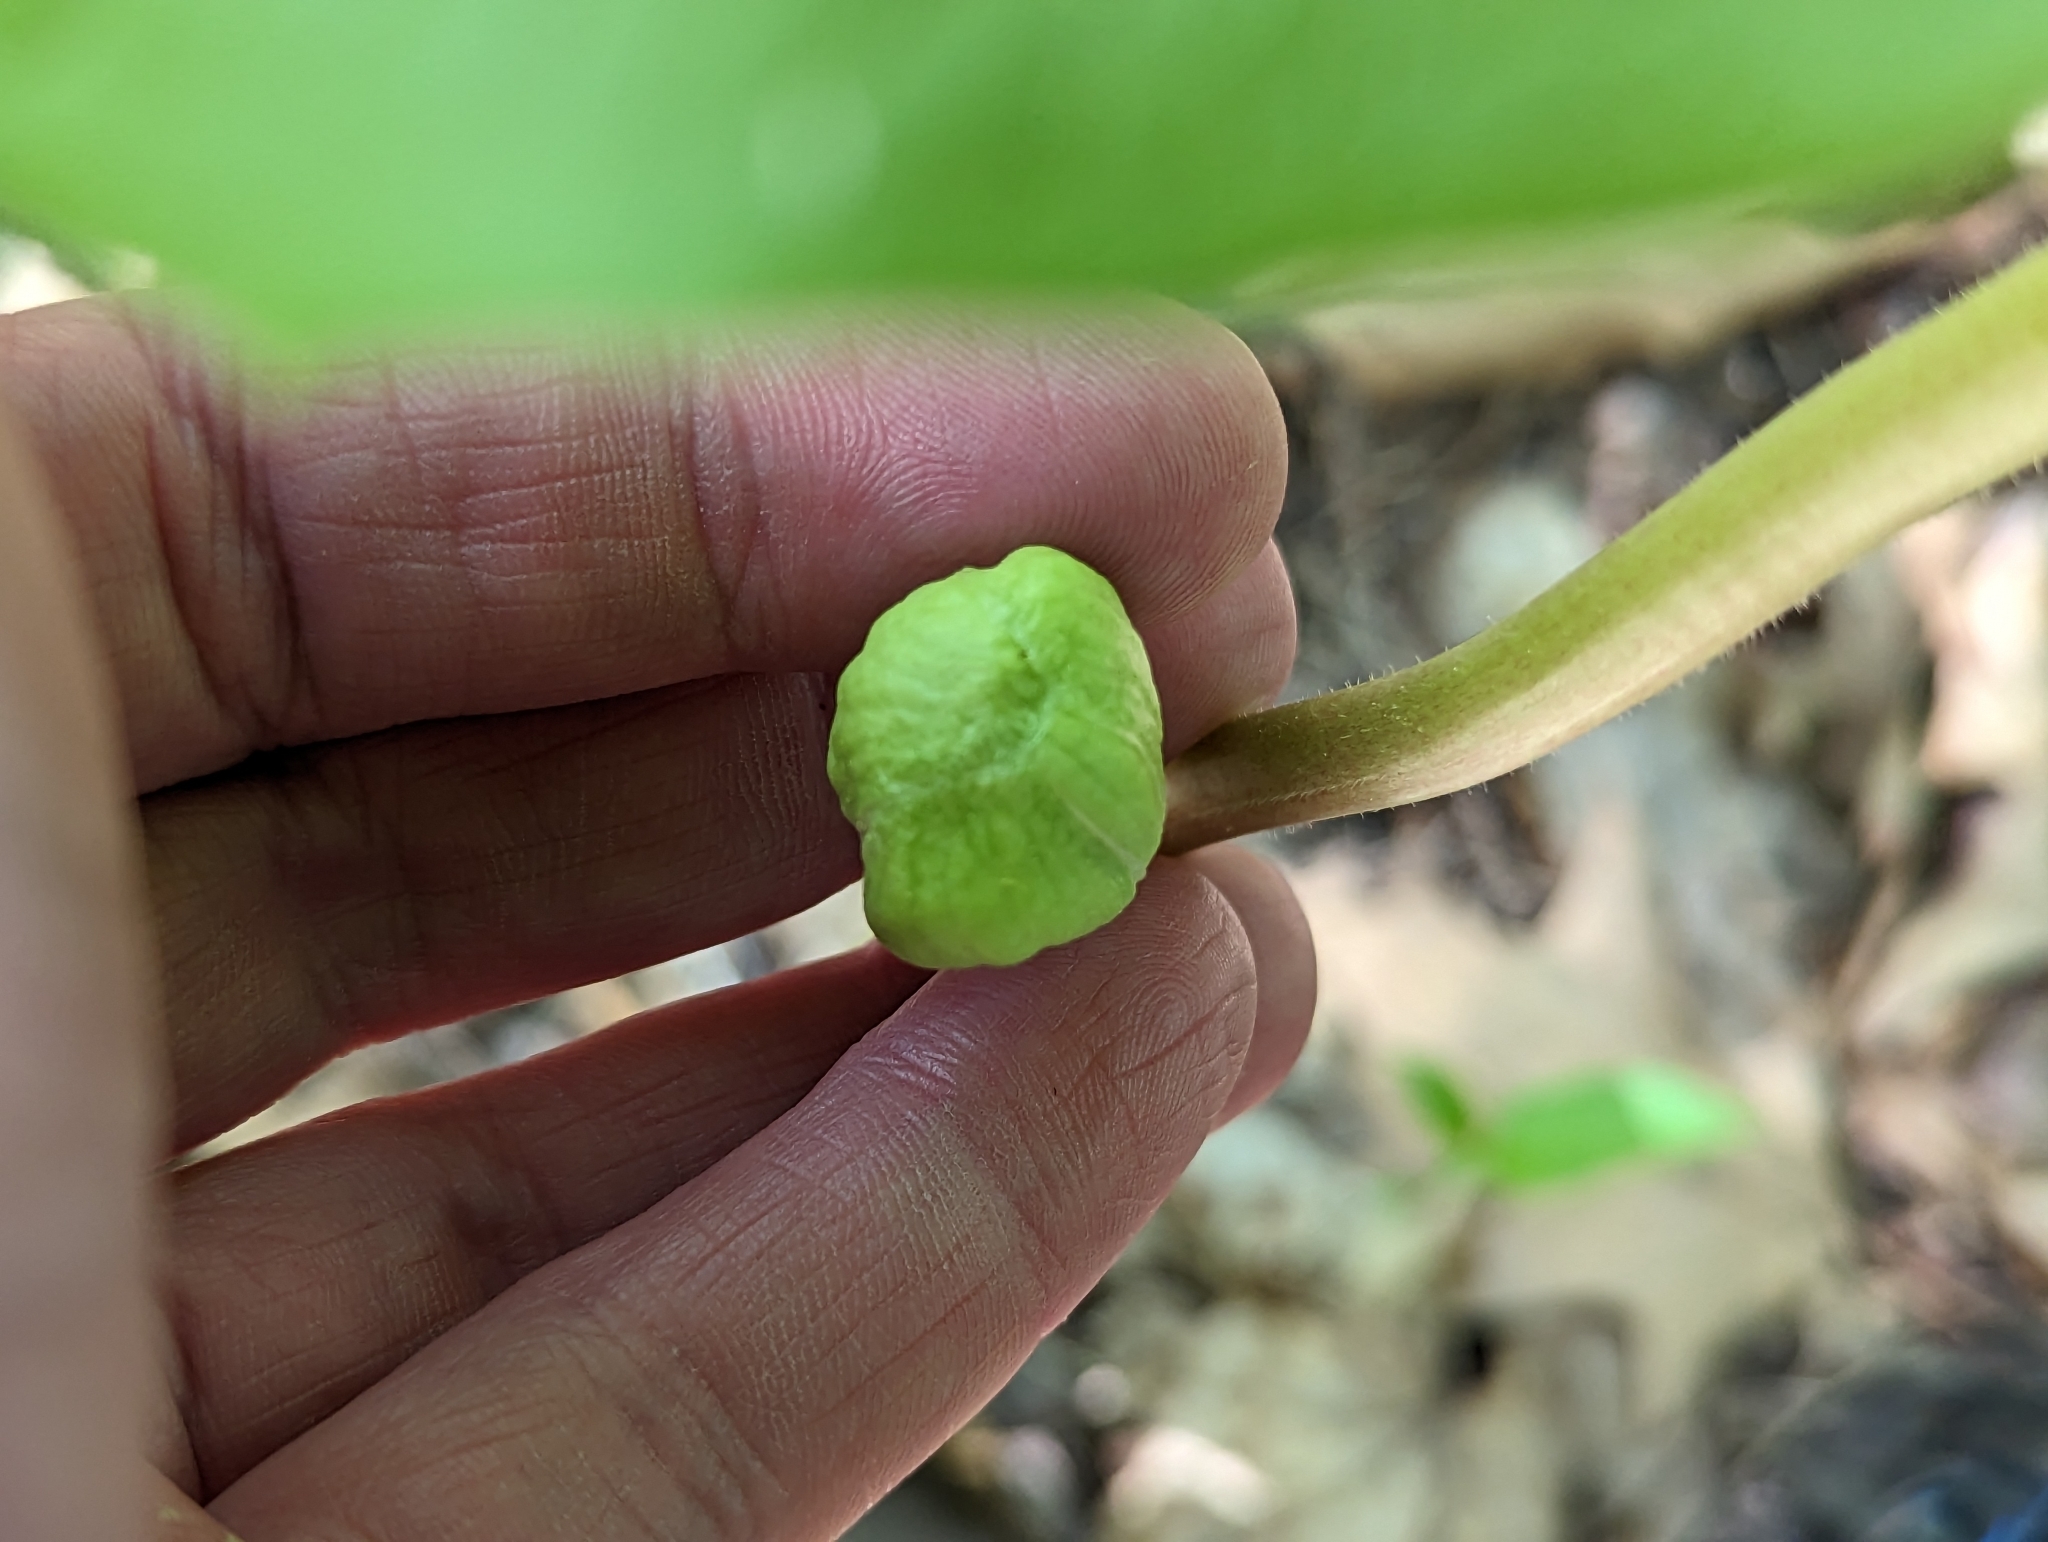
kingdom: Plantae
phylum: Tracheophyta
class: Magnoliopsida
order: Ranunculales
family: Berberidaceae
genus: Podophyllum
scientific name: Podophyllum peltatum
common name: Wild mandrake
